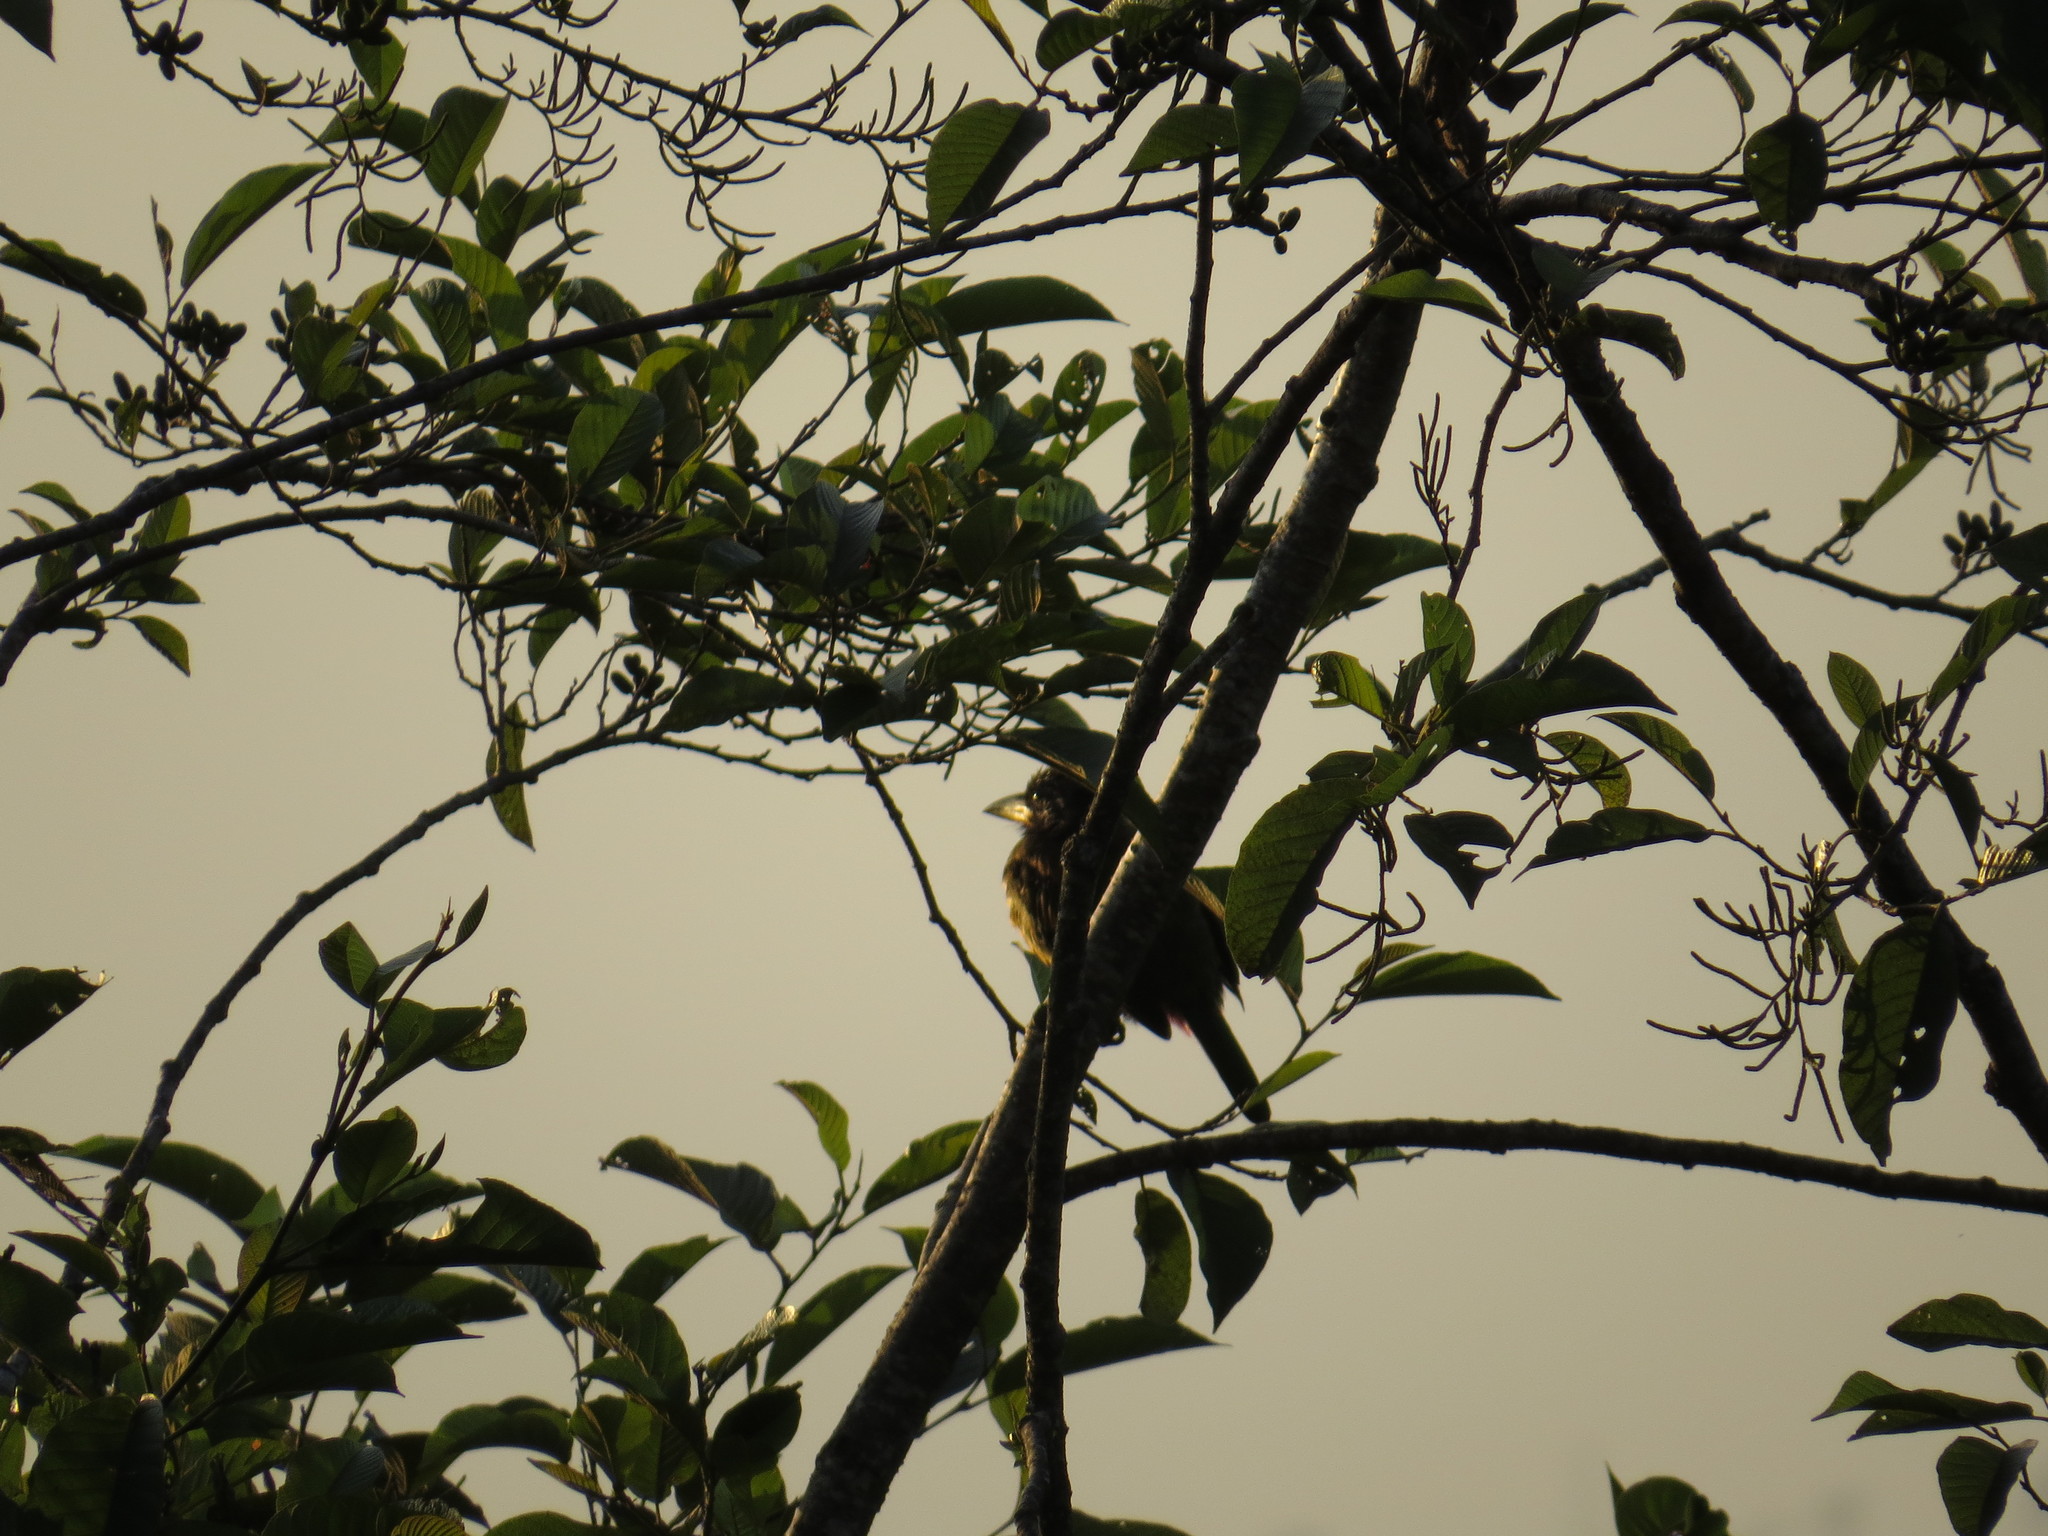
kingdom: Animalia
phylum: Chordata
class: Aves
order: Piciformes
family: Megalaimidae
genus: Psilopogon
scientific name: Psilopogon virens
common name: Great barbet
